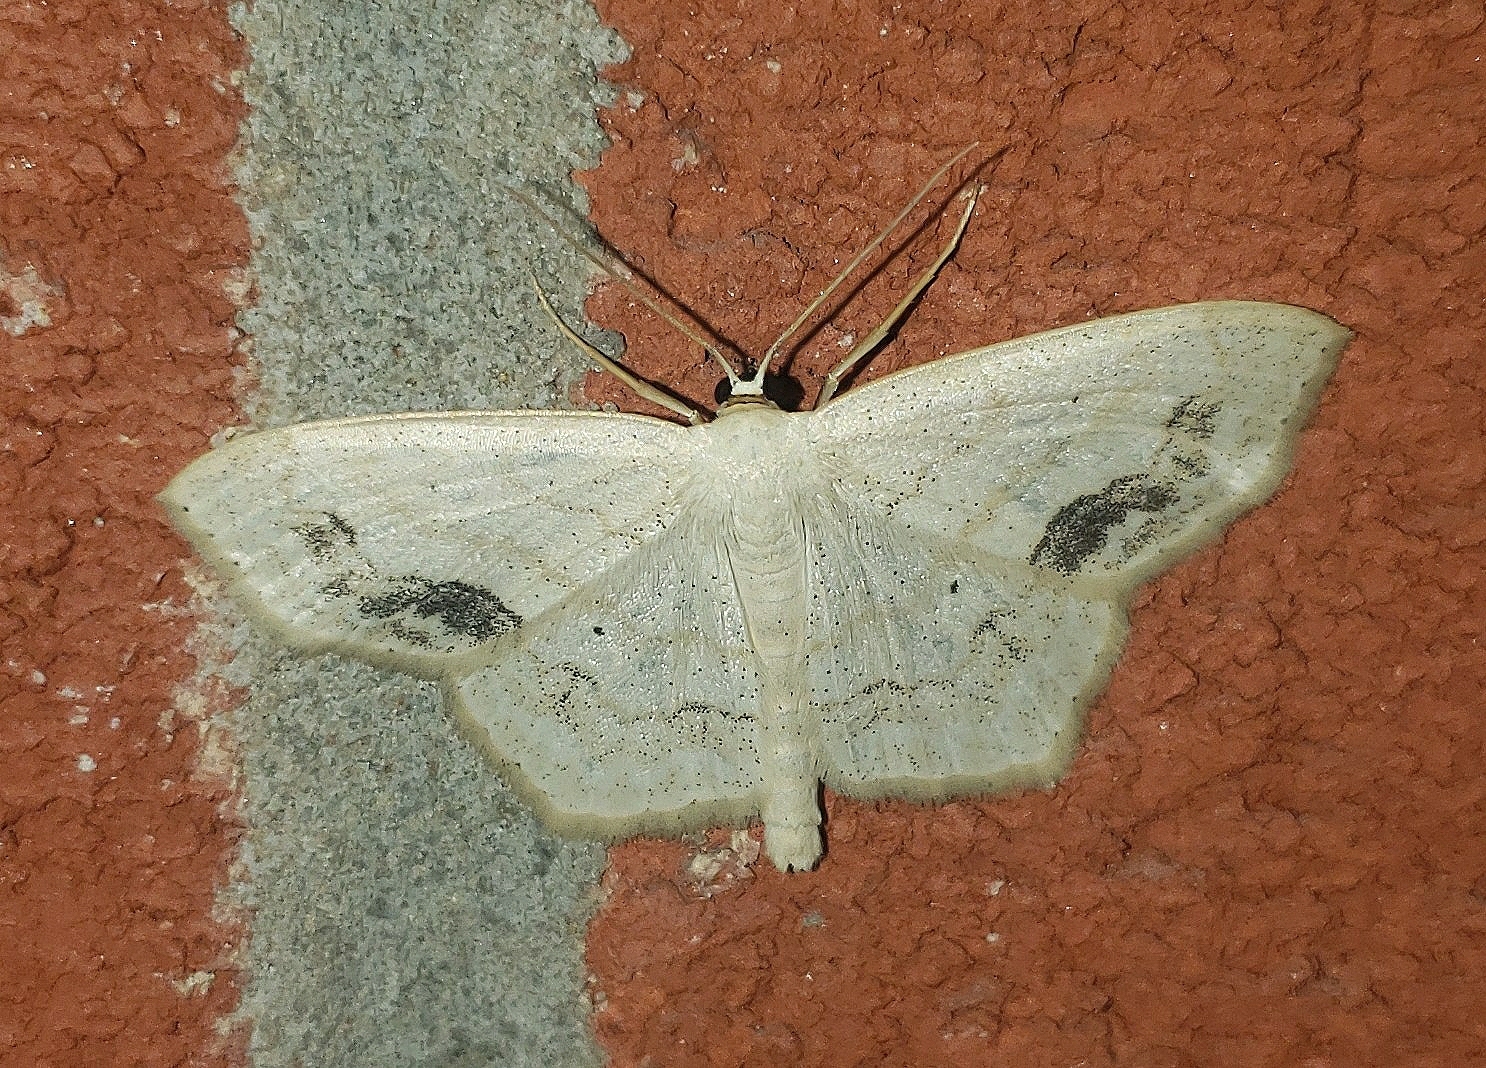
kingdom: Animalia
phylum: Arthropoda
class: Insecta
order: Lepidoptera
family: Geometridae
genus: Scopula
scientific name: Scopula limboundata
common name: Large lace border
